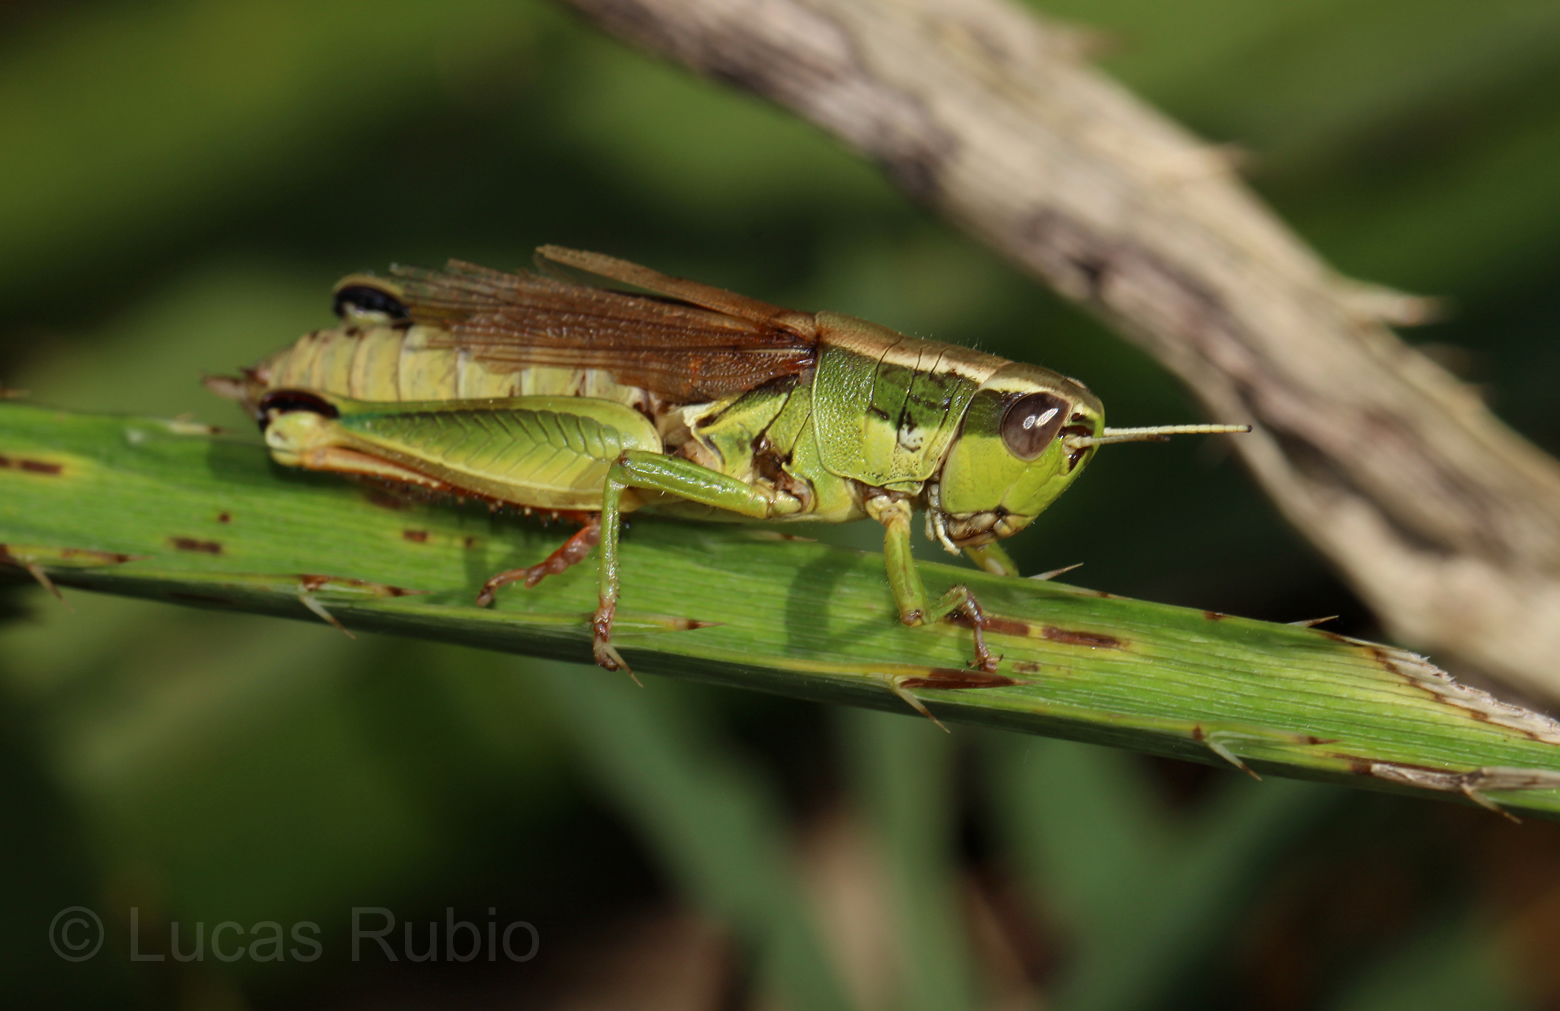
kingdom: Animalia
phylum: Arthropoda
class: Insecta
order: Orthoptera
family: Acrididae
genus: Scotussa
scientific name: Scotussa cliens
